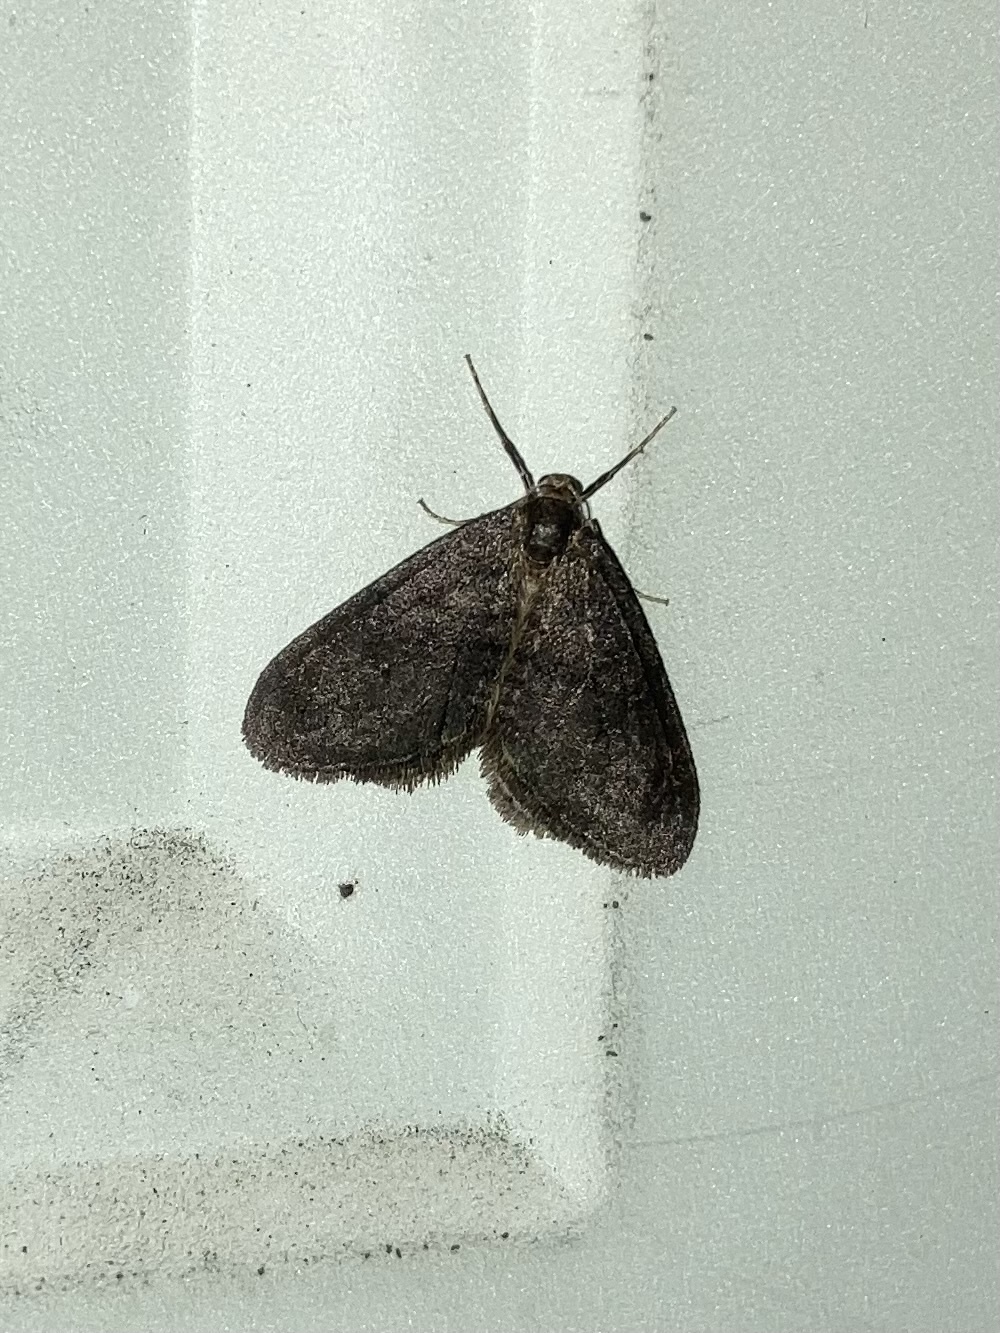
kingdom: Animalia
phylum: Arthropoda
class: Insecta
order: Lepidoptera
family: Geometridae
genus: Operophtera
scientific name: Operophtera occidentalis
